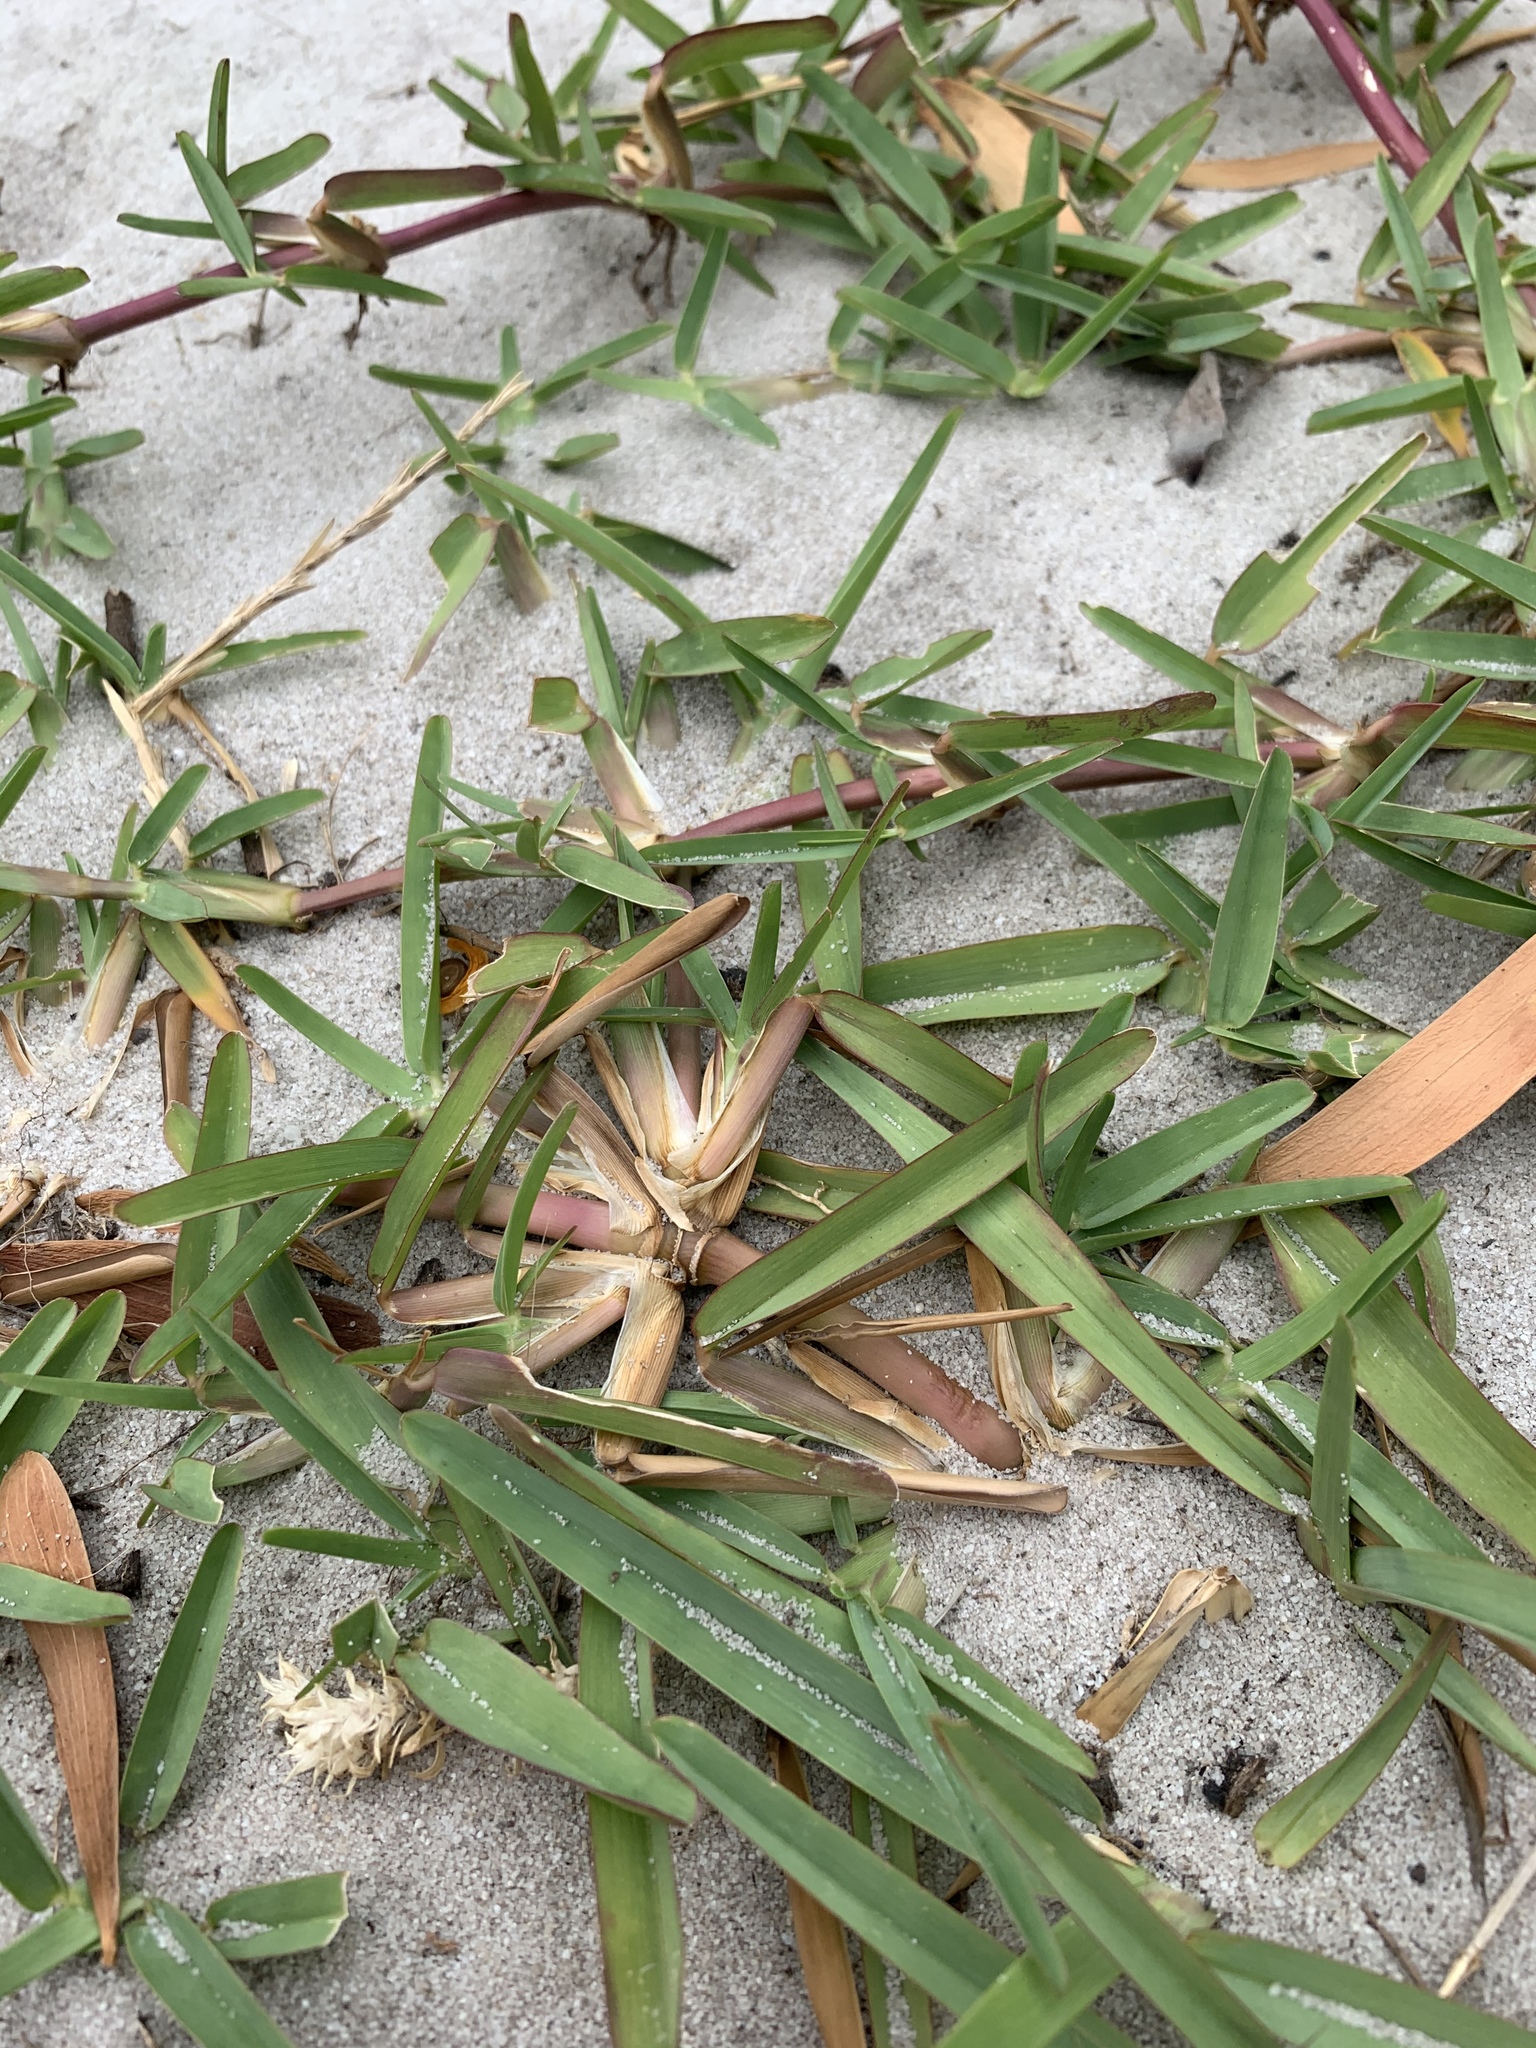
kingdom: Plantae
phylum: Tracheophyta
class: Liliopsida
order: Poales
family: Poaceae
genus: Stenotaphrum
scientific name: Stenotaphrum secundatum
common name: St. augustine grass
